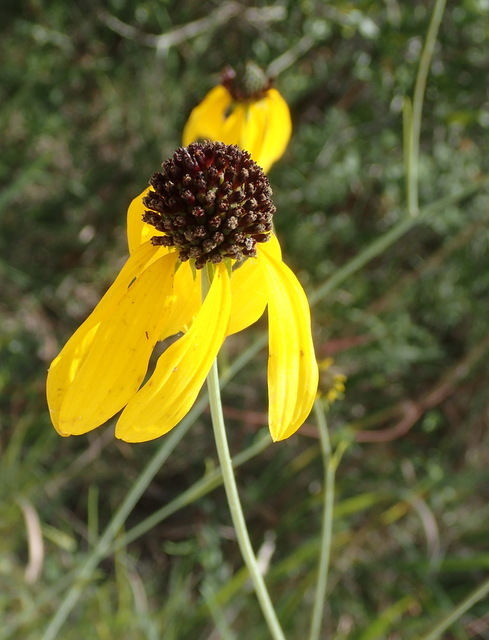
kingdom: Plantae
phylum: Tracheophyta
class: Magnoliopsida
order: Asterales
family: Asteraceae
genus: Rudbeckia
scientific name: Rudbeckia mohrii
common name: Grassy coneflower
